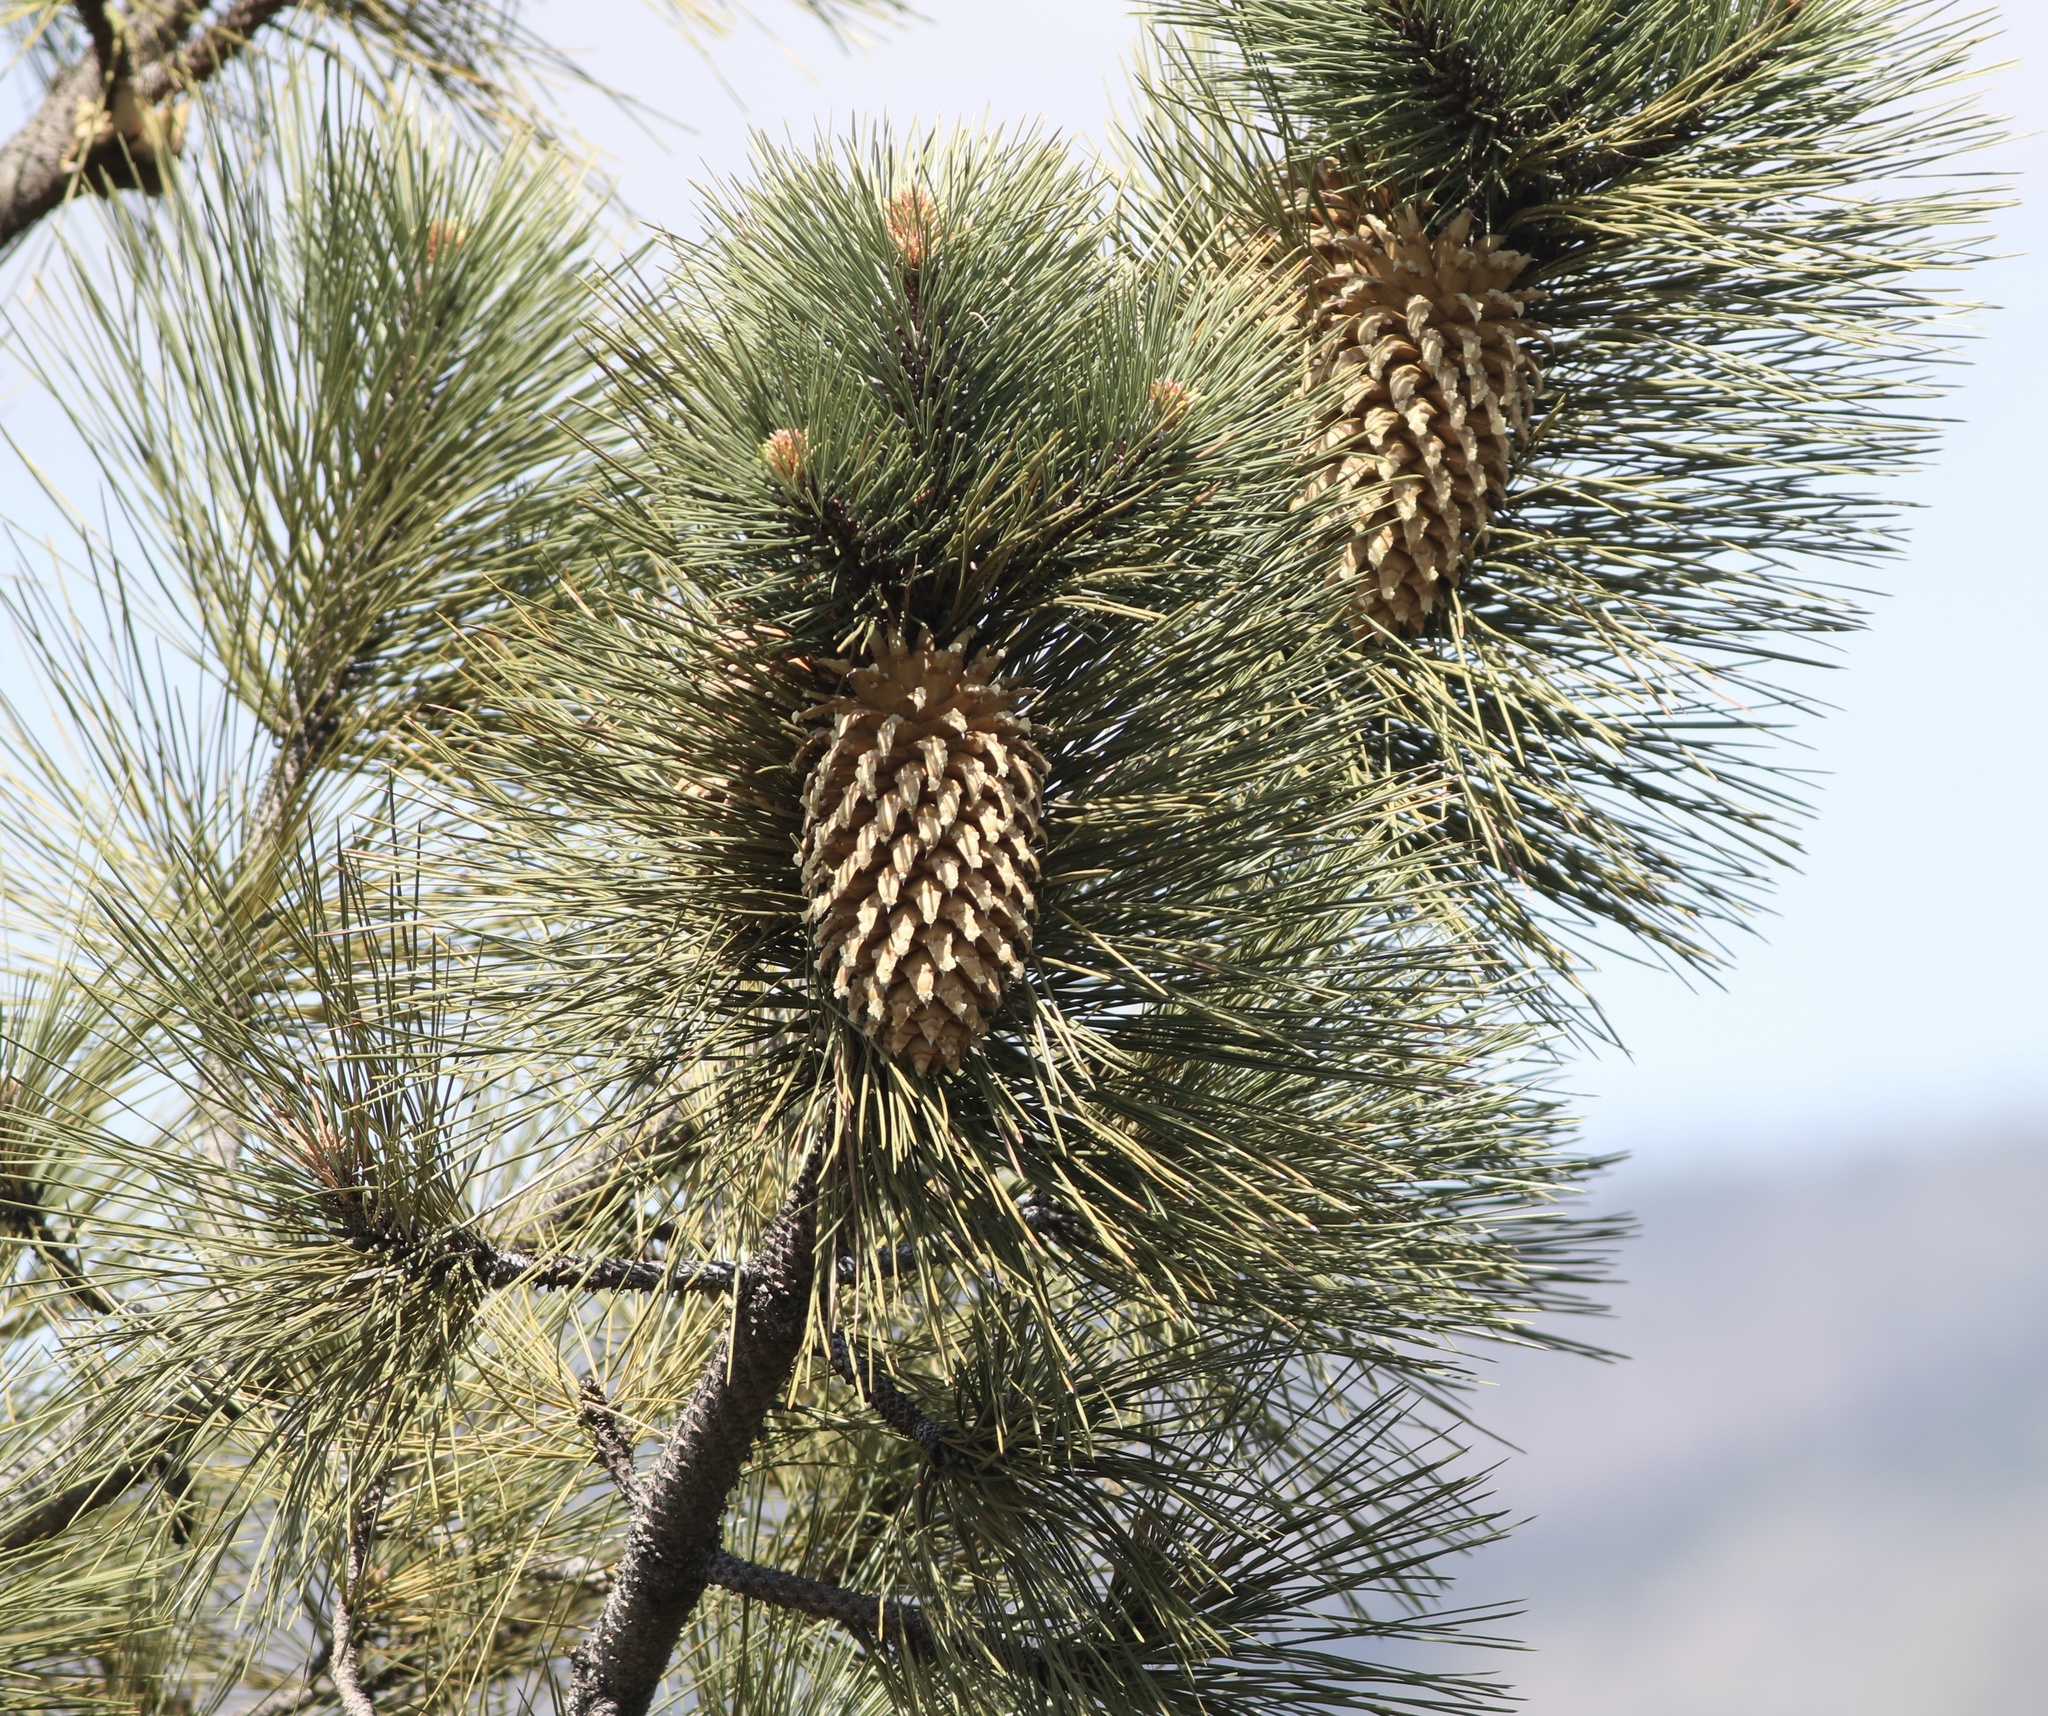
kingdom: Plantae
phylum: Tracheophyta
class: Pinopsida
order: Pinales
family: Pinaceae
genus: Pinus
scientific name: Pinus coulteri
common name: Coulter pine
